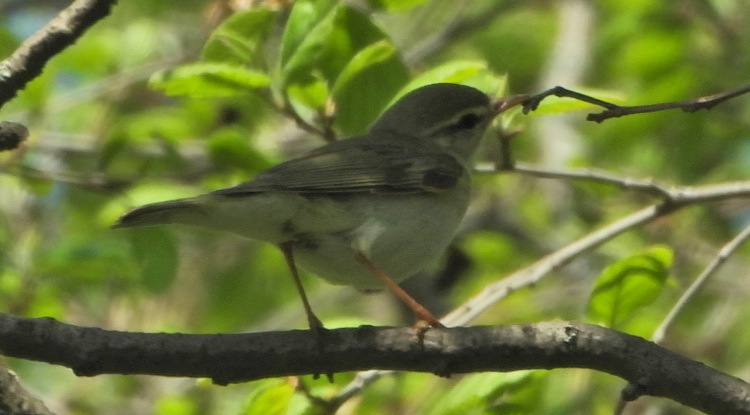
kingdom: Animalia
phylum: Chordata
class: Aves
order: Passeriformes
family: Phylloscopidae
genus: Phylloscopus
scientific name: Phylloscopus trochilus
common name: Willow warbler
